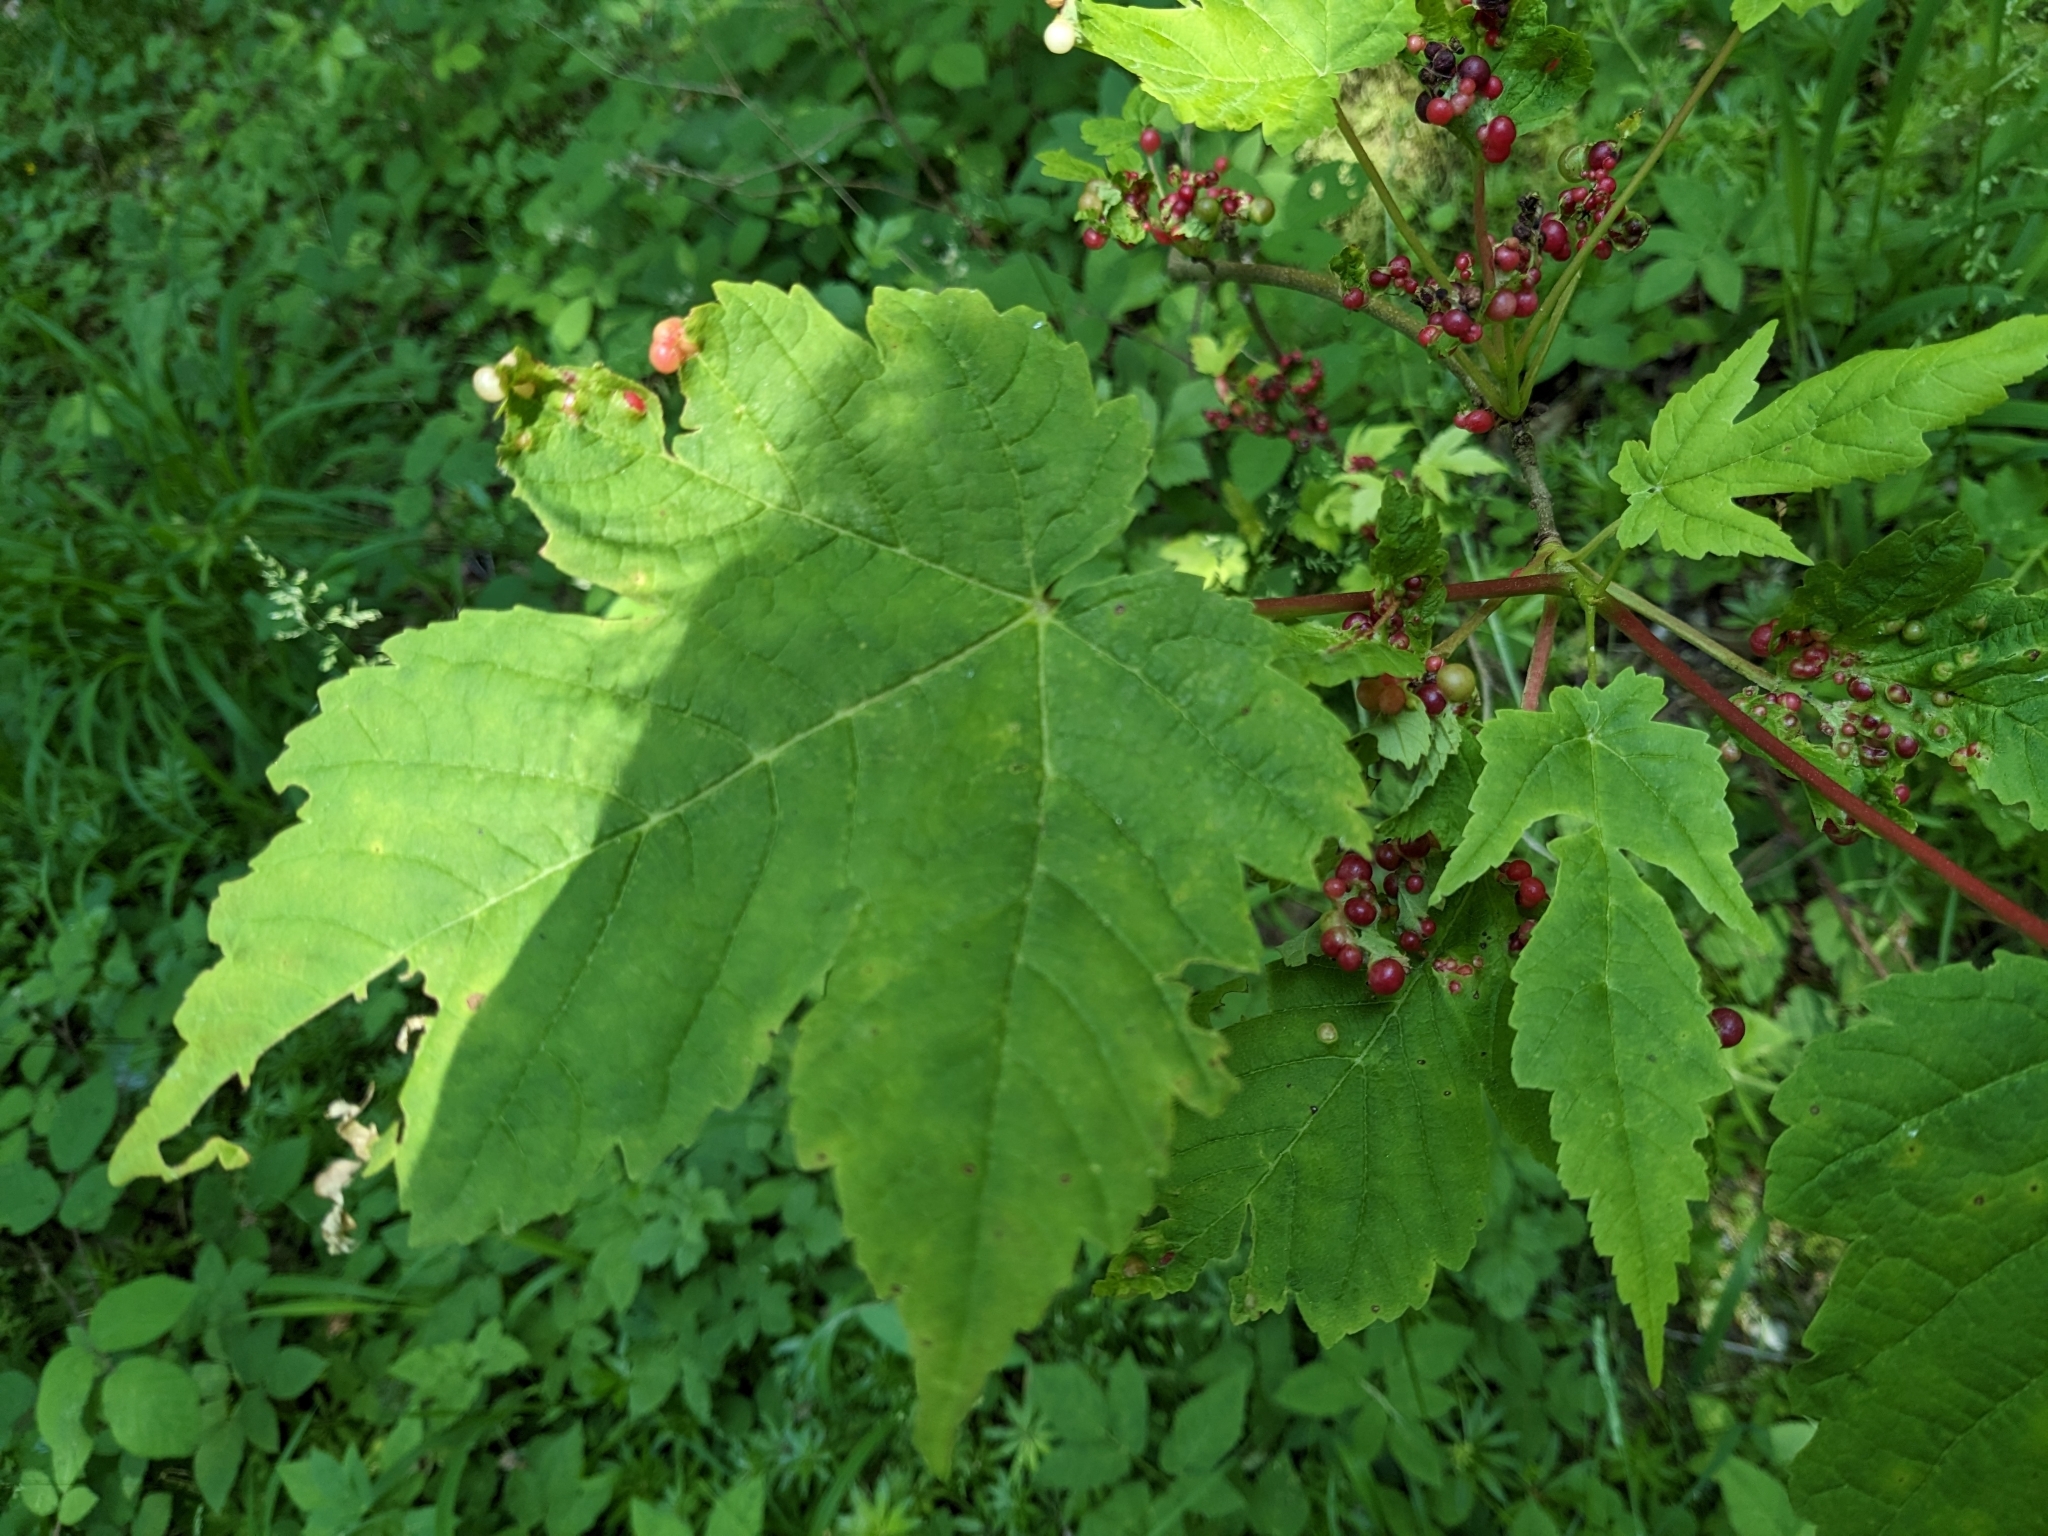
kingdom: Plantae
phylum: Tracheophyta
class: Magnoliopsida
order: Sapindales
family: Sapindaceae
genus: Acer
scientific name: Acer pseudoplatanus
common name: Sycamore
